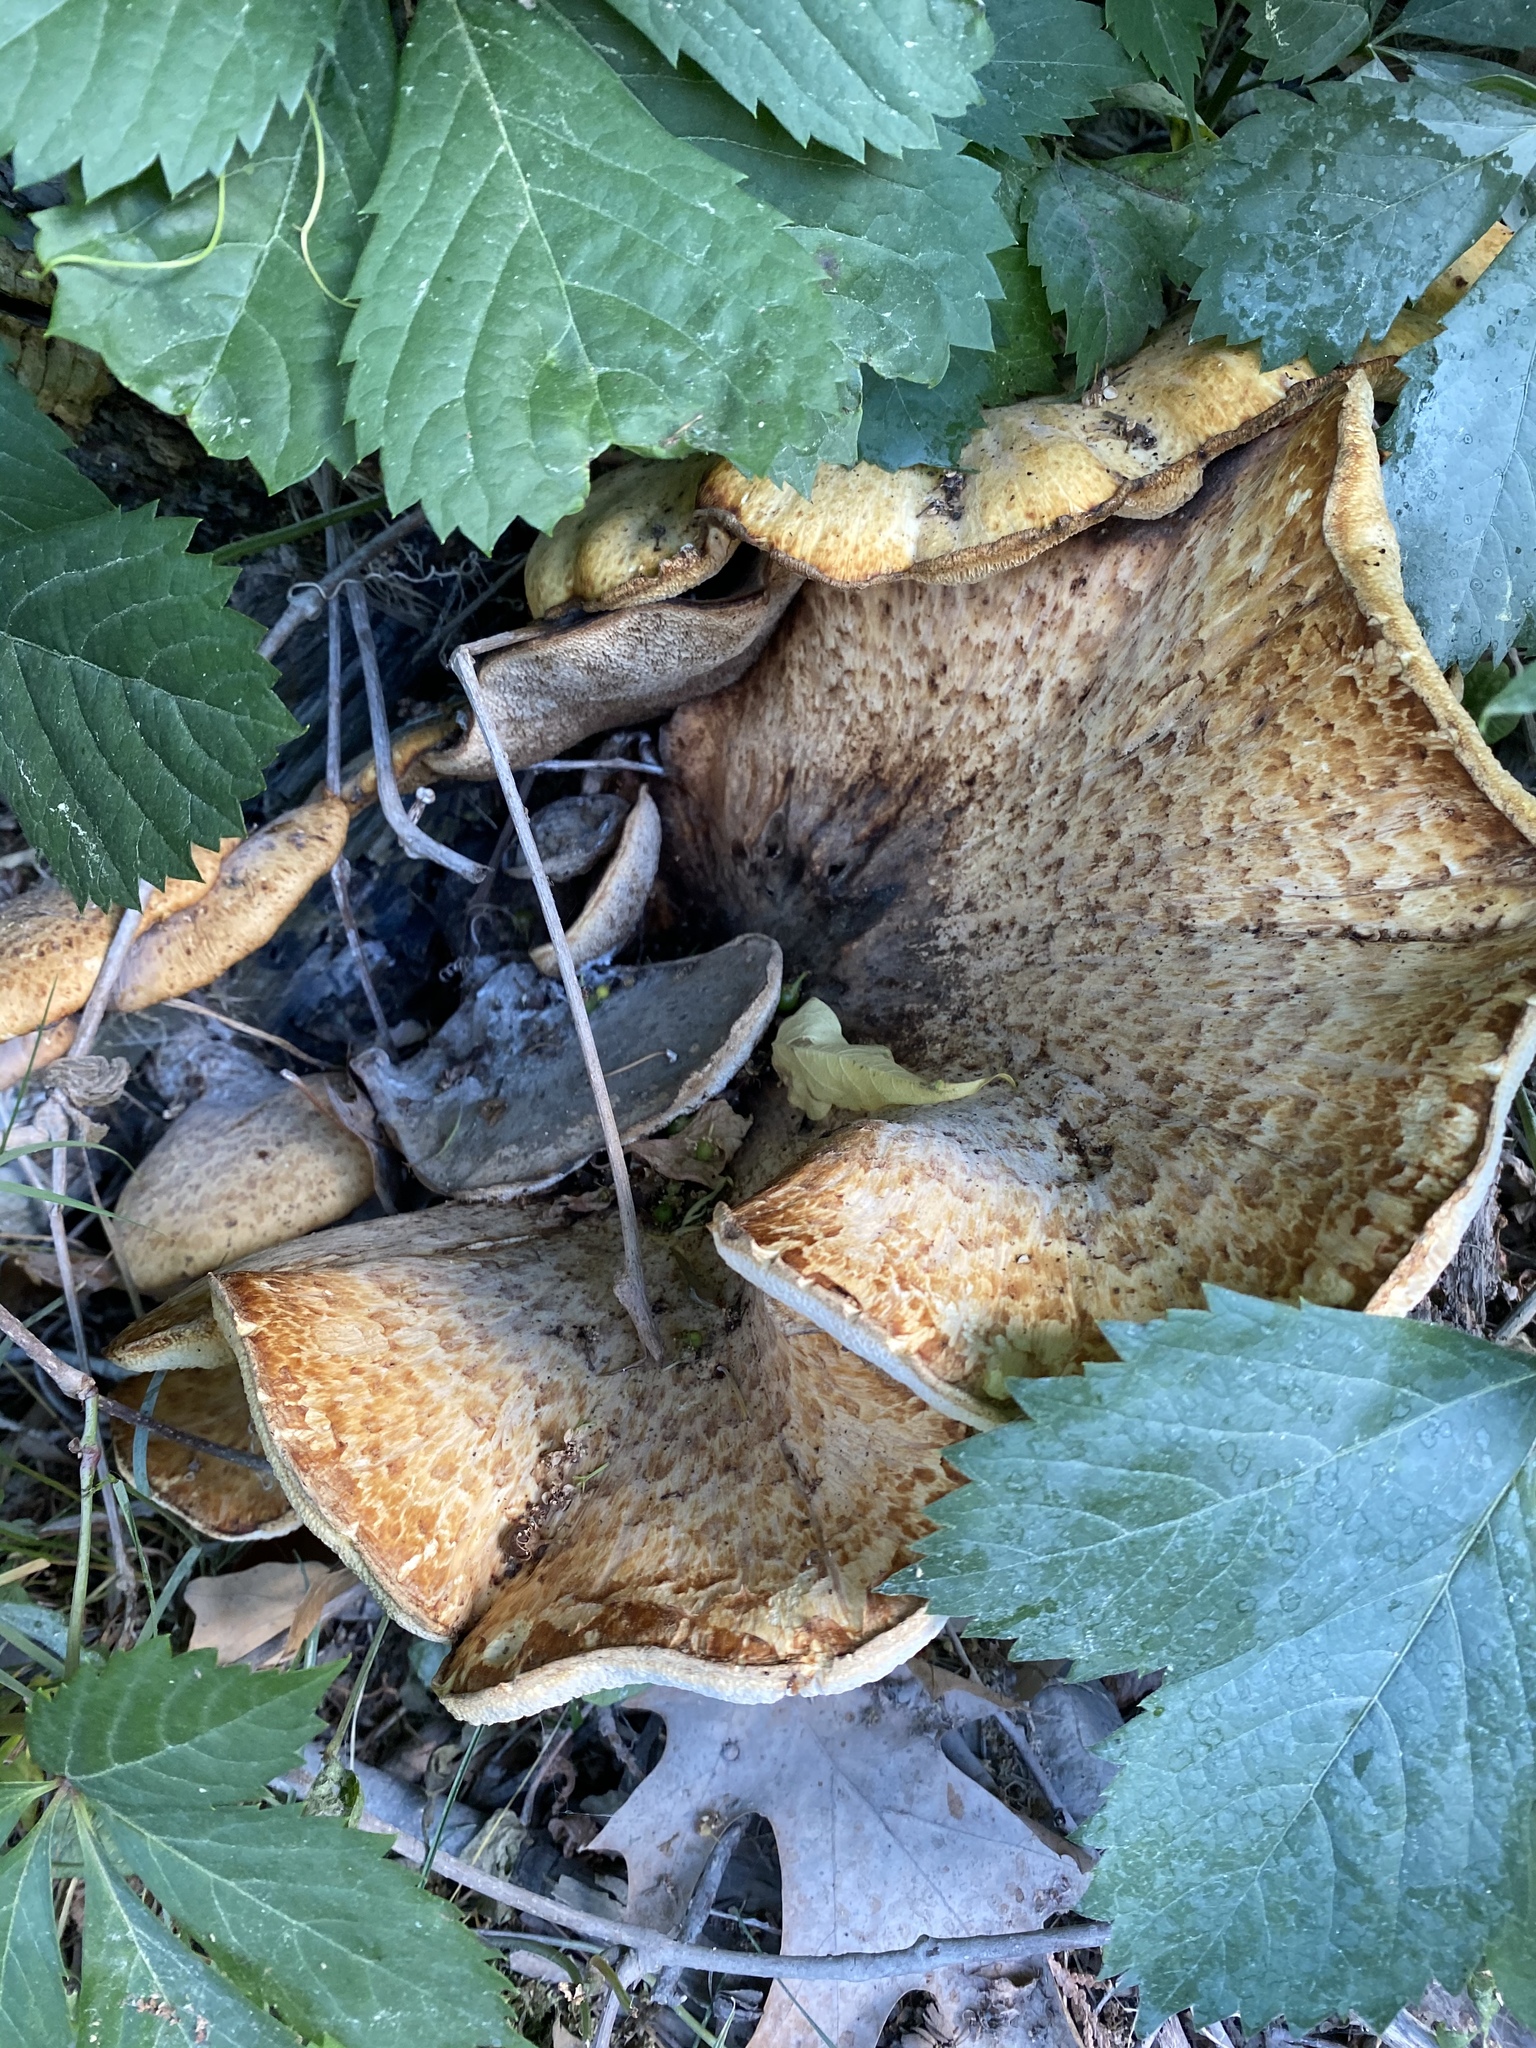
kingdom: Fungi
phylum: Basidiomycota
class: Agaricomycetes
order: Polyporales
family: Polyporaceae
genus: Cerioporus
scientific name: Cerioporus squamosus
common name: Dryad's saddle
